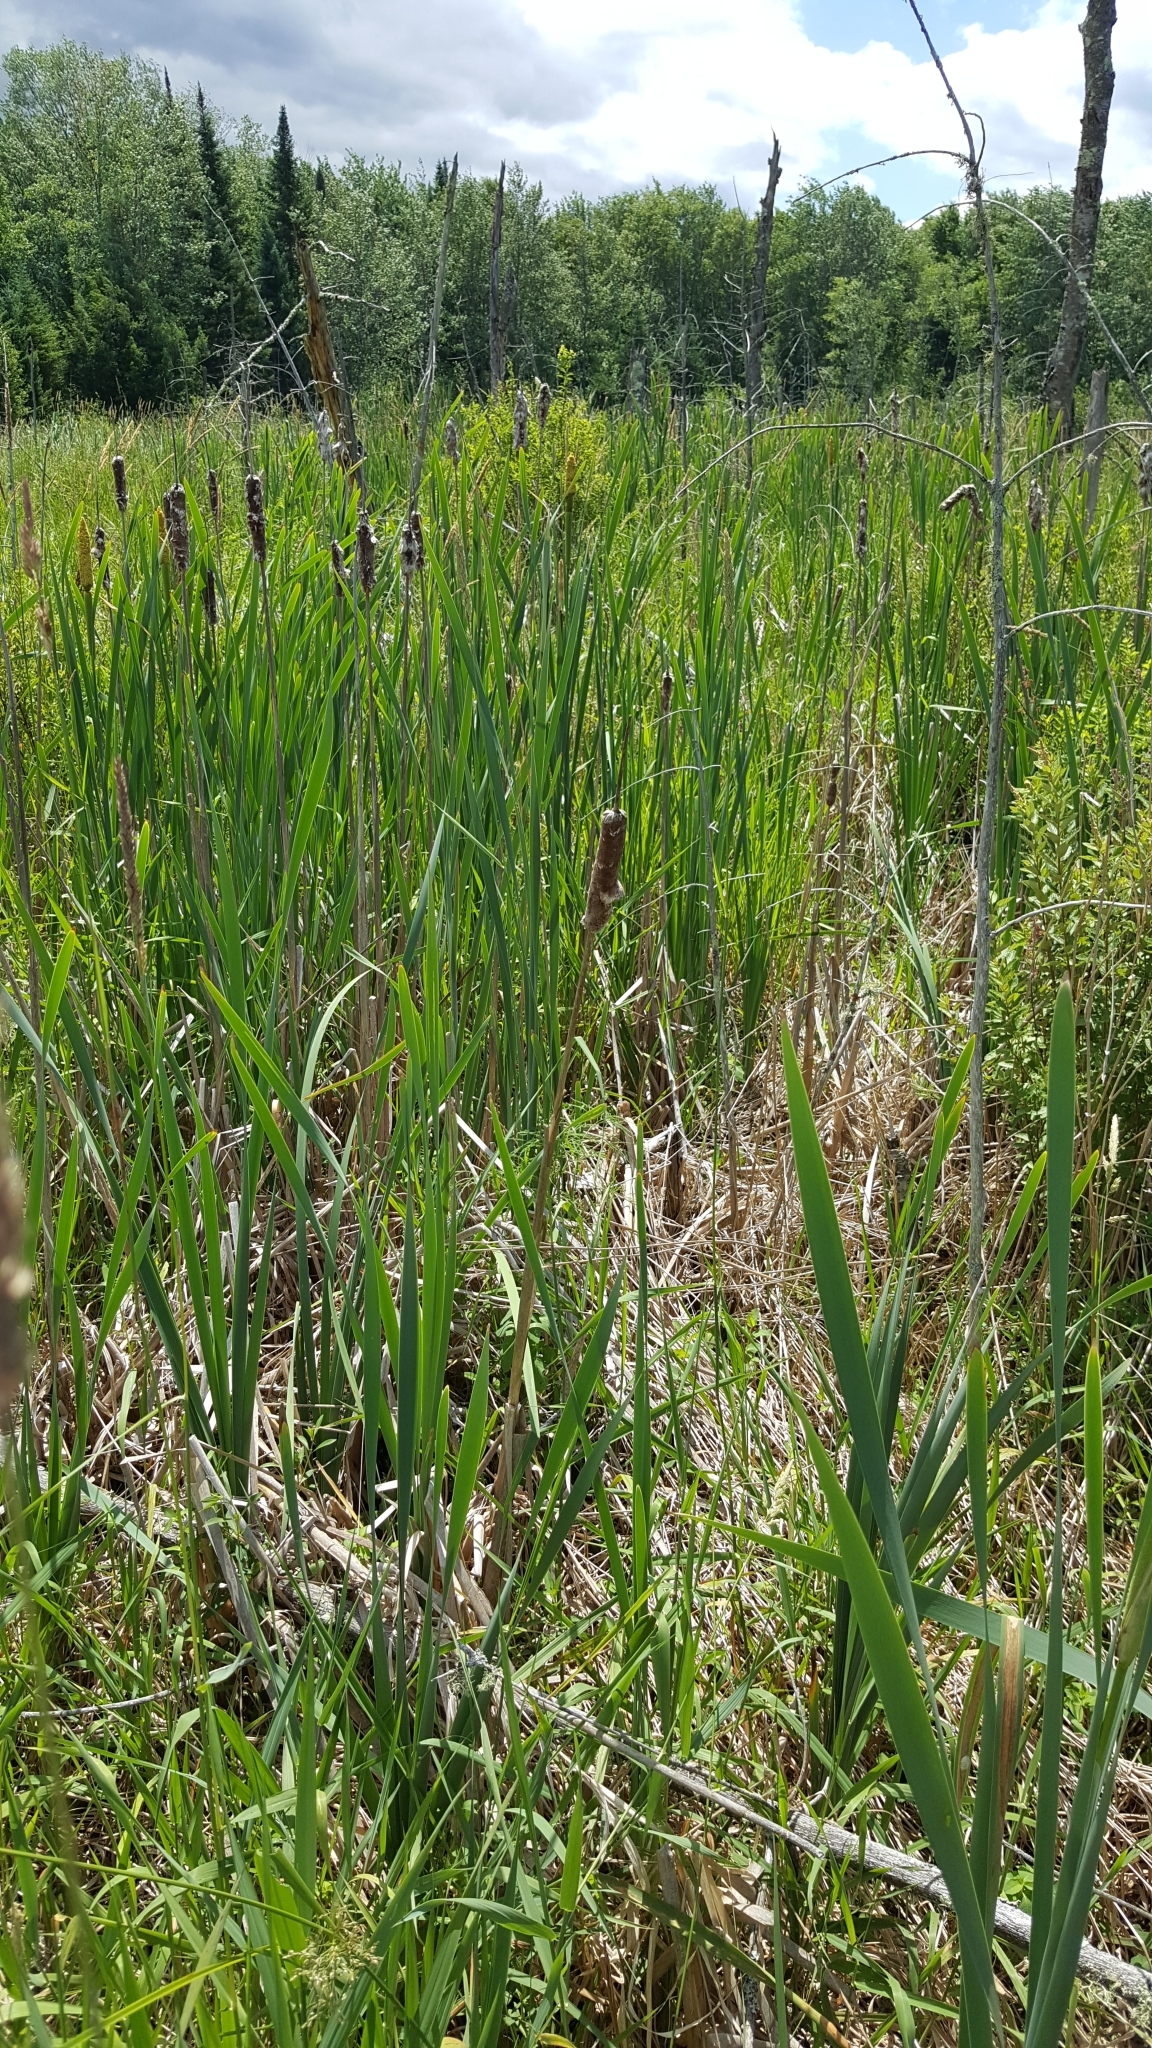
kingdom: Plantae
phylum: Tracheophyta
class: Liliopsida
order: Poales
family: Typhaceae
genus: Typha
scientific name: Typha latifolia
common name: Broadleaf cattail
